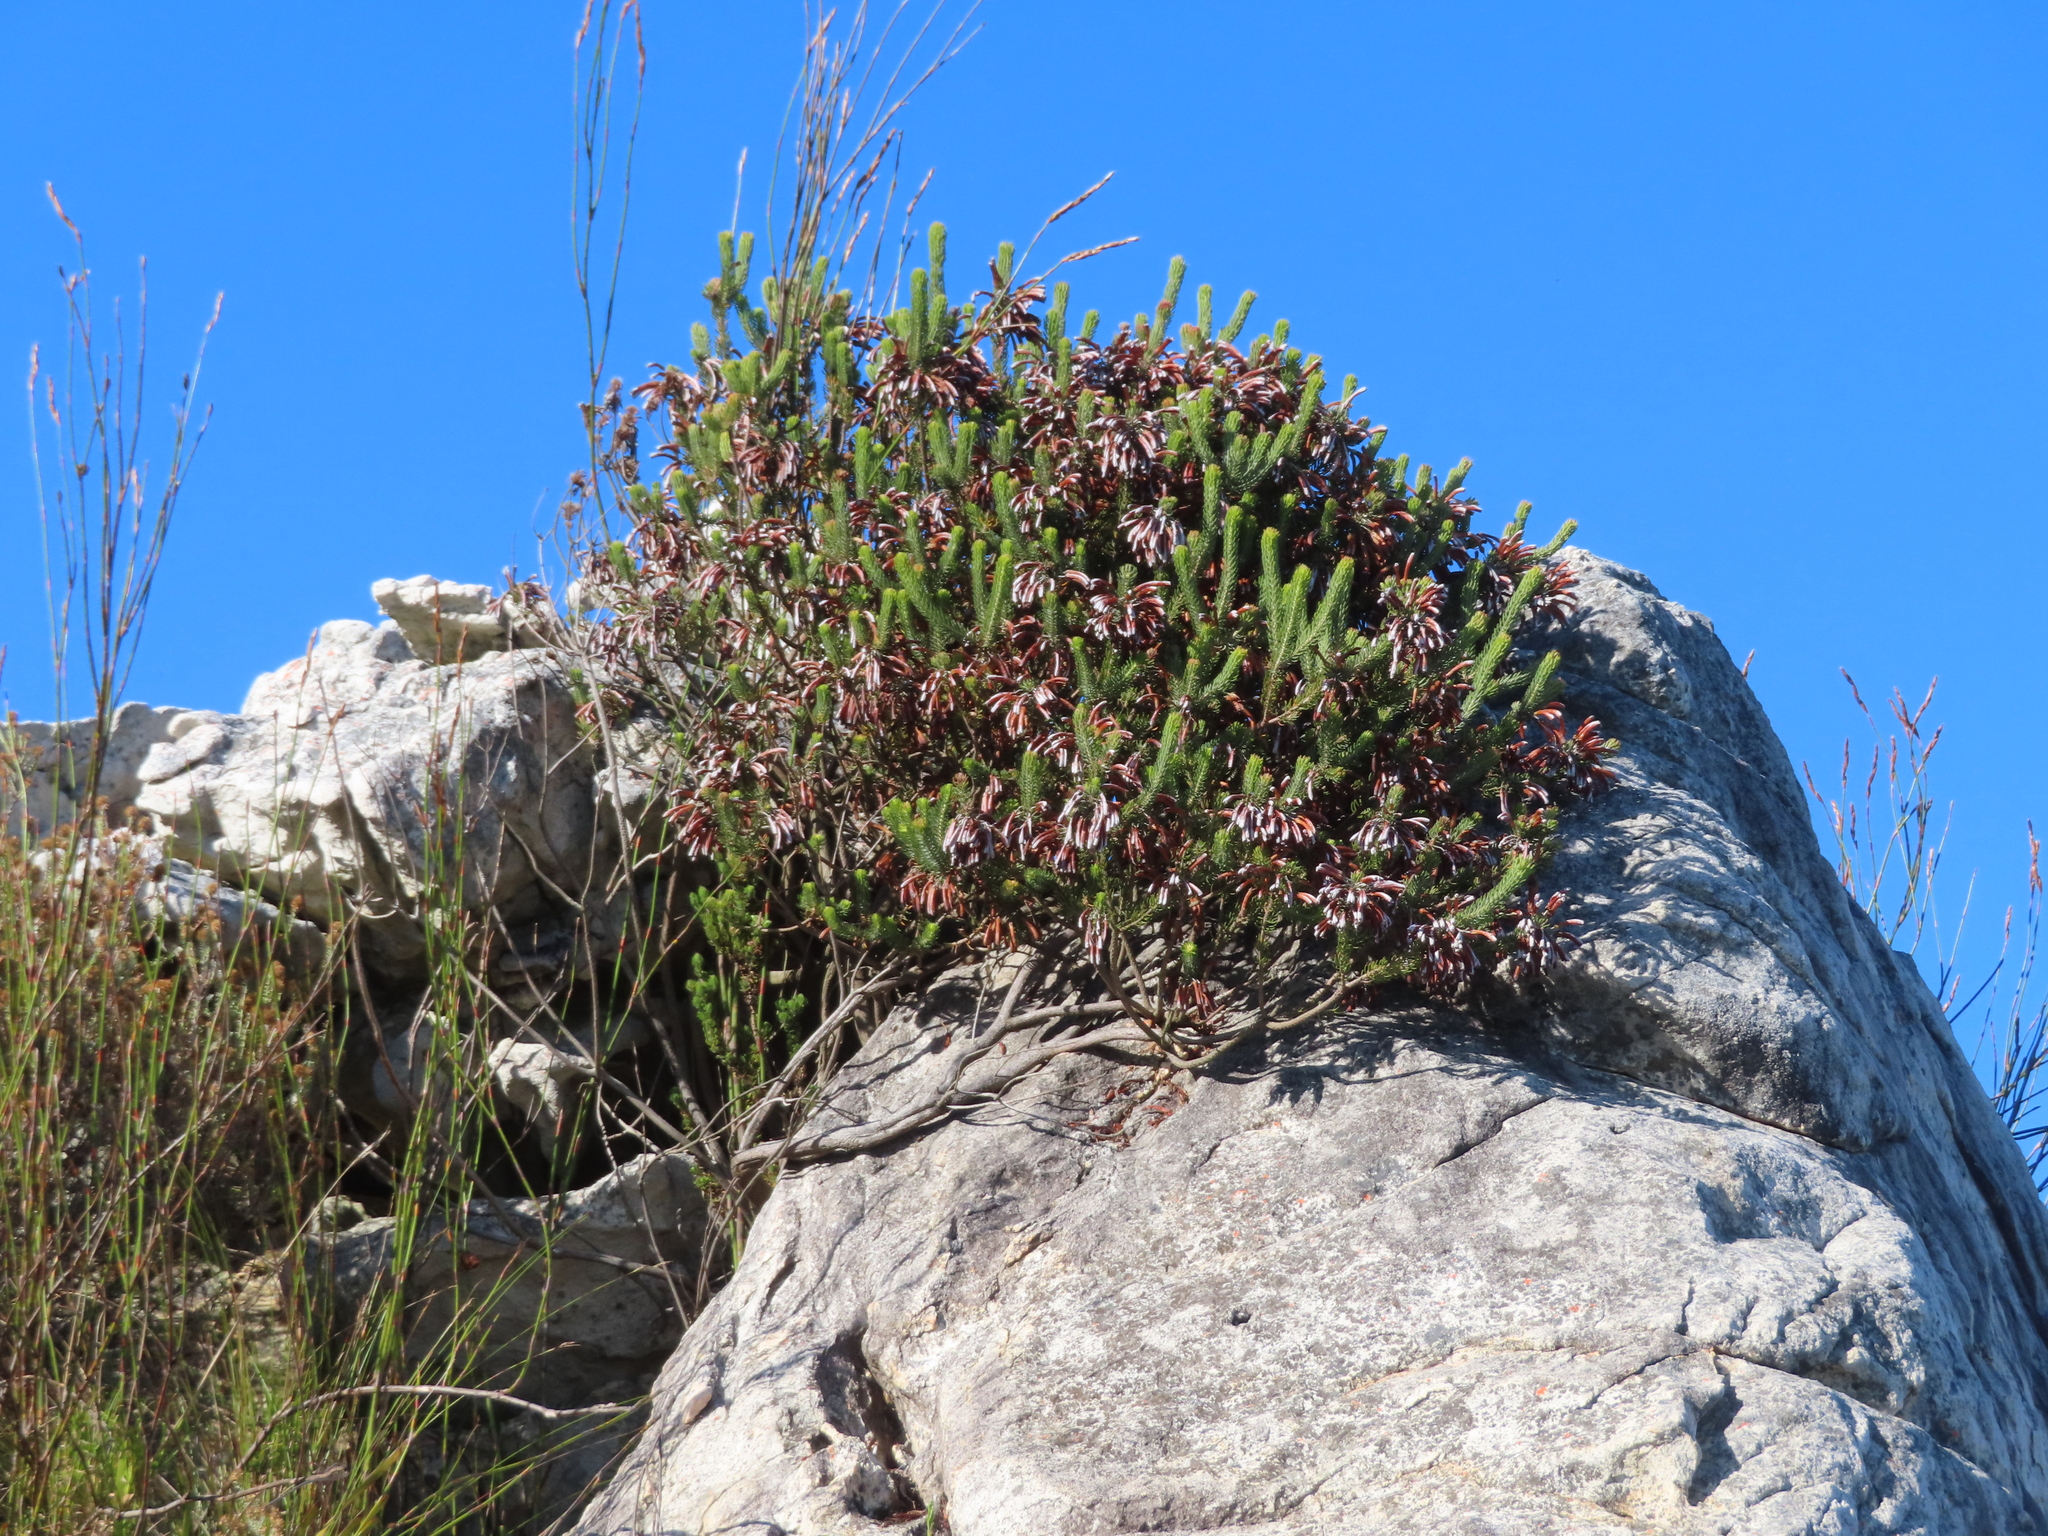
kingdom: Plantae
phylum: Tracheophyta
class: Magnoliopsida
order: Ericales
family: Ericaceae
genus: Erica
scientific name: Erica thomae
